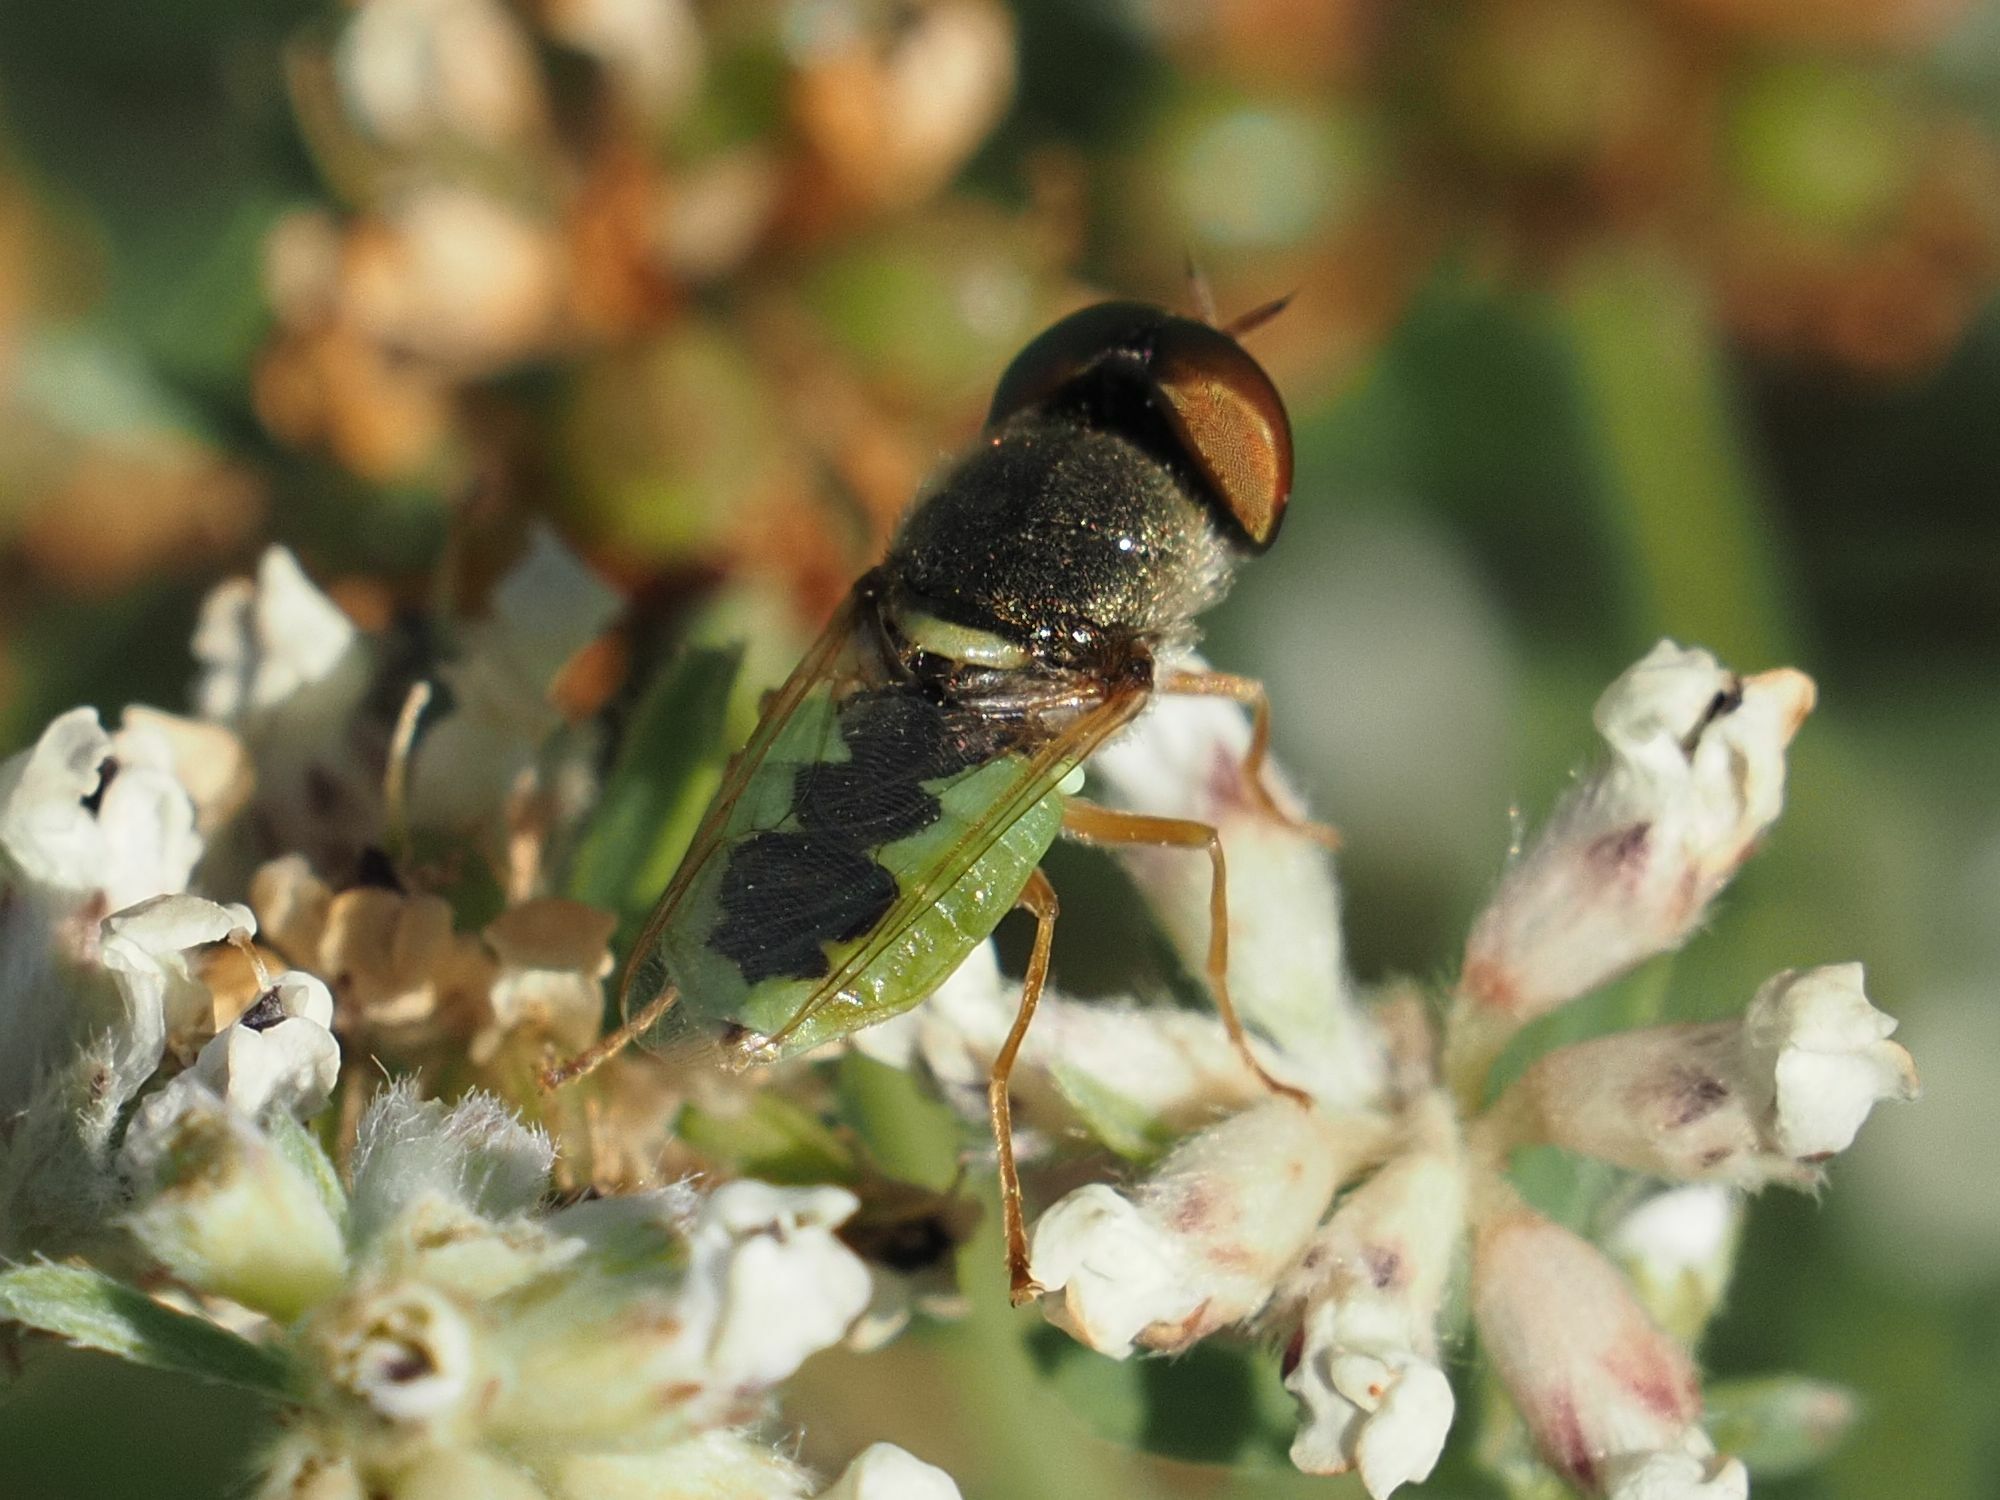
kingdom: Animalia
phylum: Arthropoda
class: Insecta
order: Diptera
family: Stratiomyidae
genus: Odontomyia
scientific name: Odontomyia angulata
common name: Orange-horned green colonel
